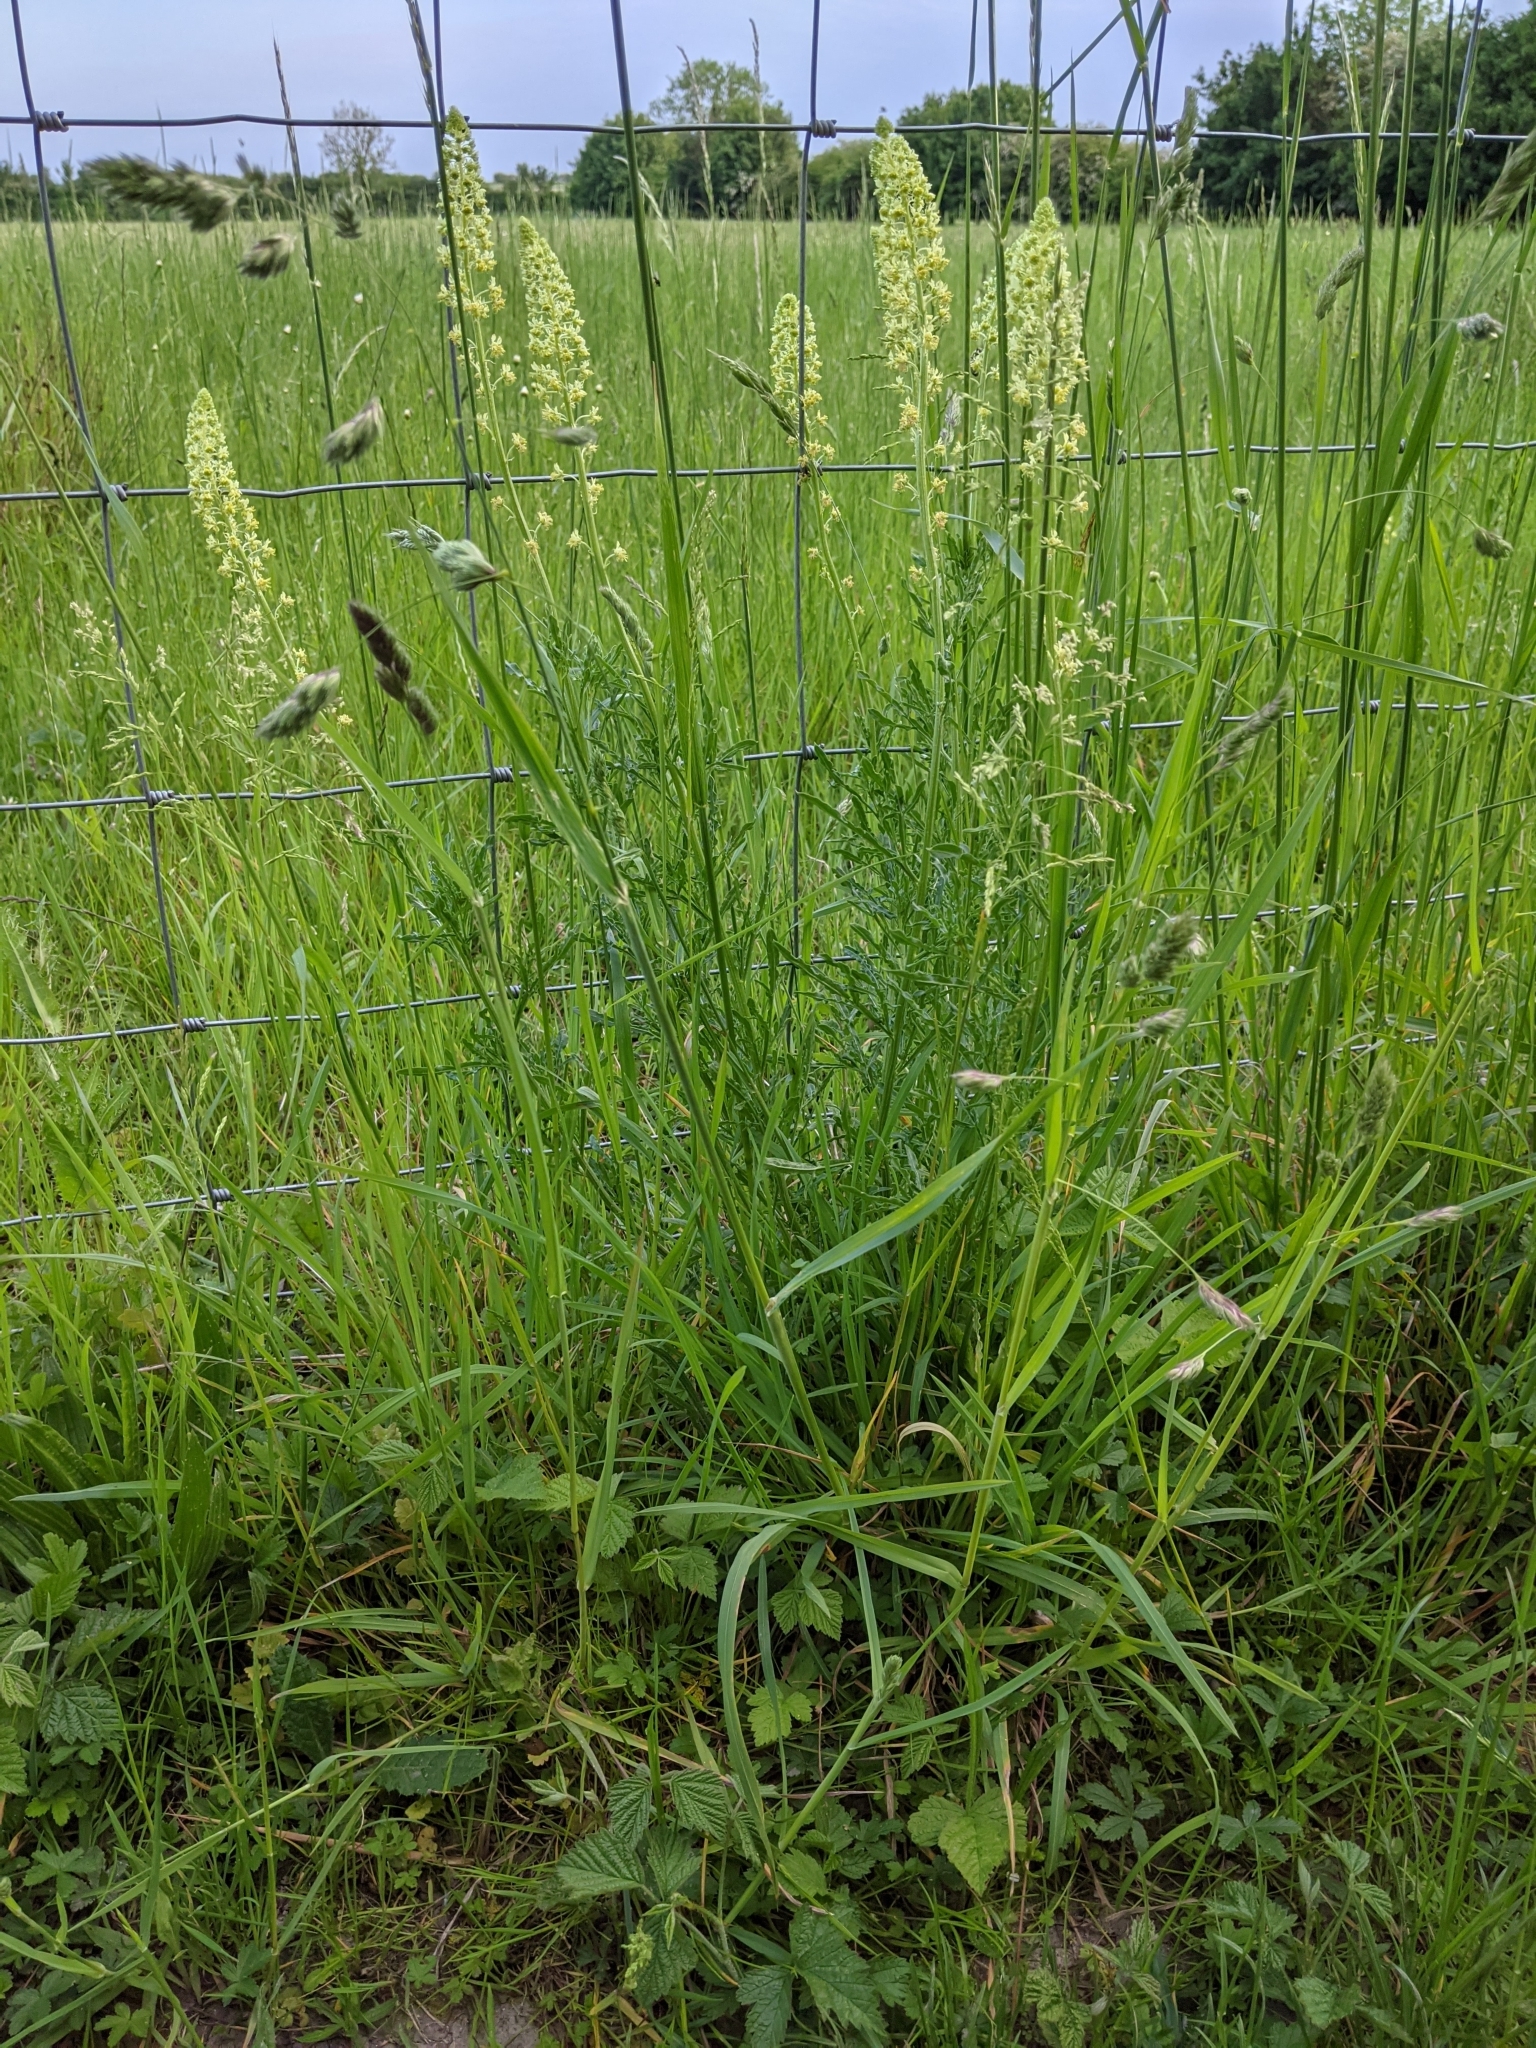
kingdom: Plantae
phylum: Tracheophyta
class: Magnoliopsida
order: Brassicales
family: Resedaceae
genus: Reseda
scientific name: Reseda lutea
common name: Wild mignonette
